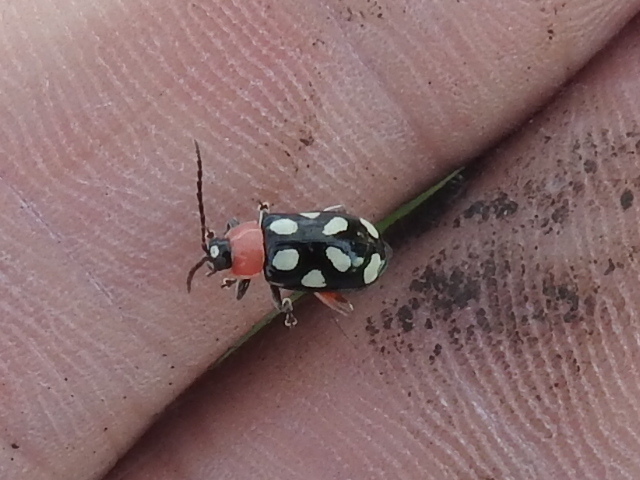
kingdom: Animalia
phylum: Arthropoda
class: Insecta
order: Coleoptera
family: Chrysomelidae
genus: Omophoita
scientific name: Omophoita cyanipennis
